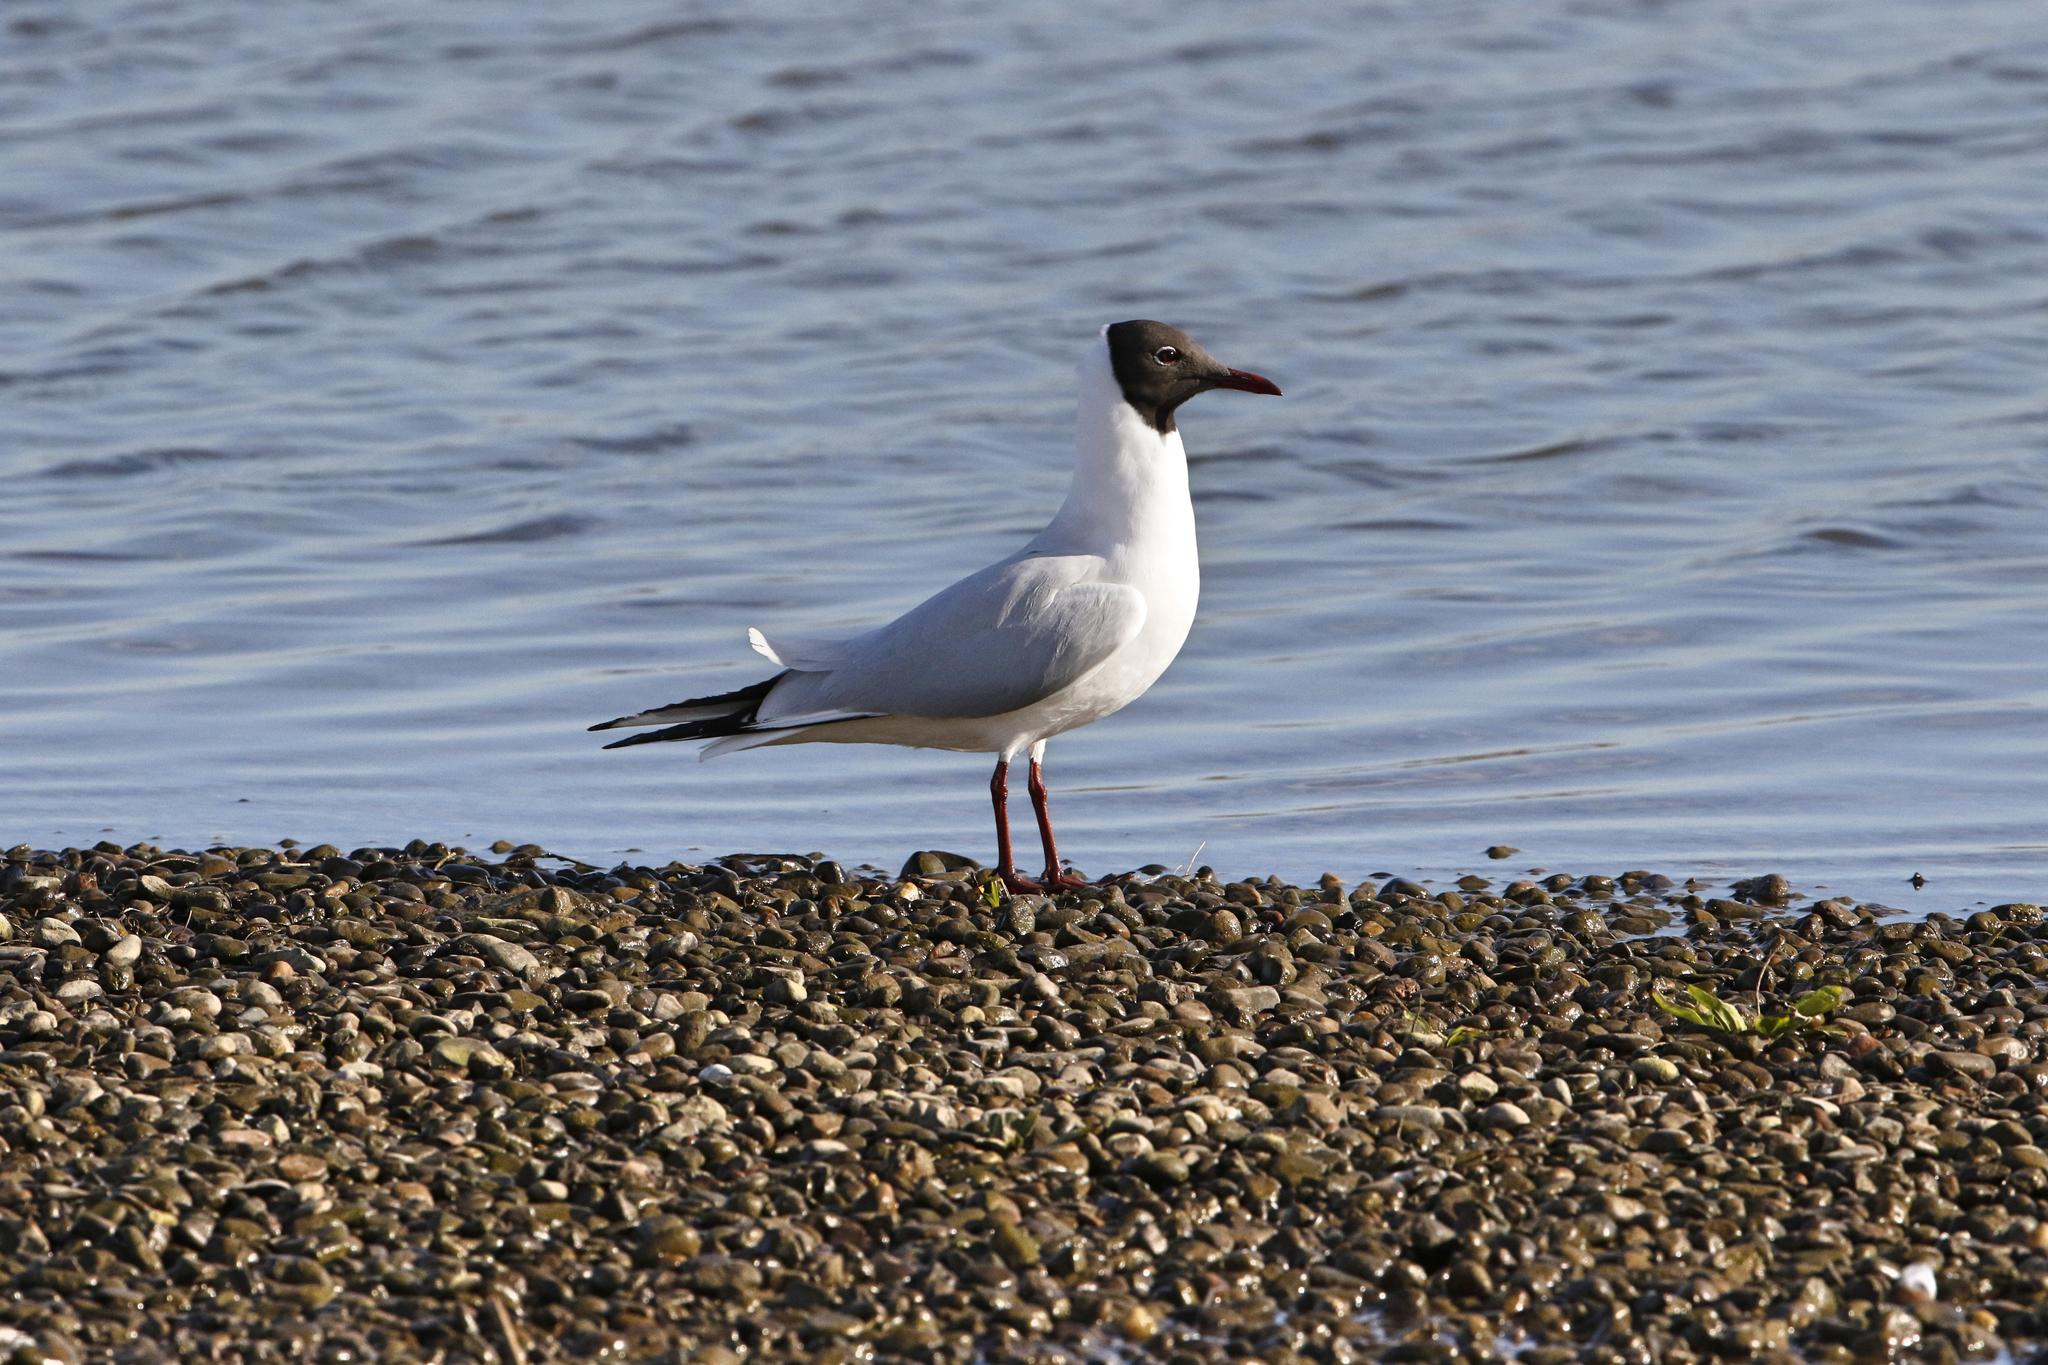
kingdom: Animalia
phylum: Chordata
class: Aves
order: Charadriiformes
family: Laridae
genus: Chroicocephalus
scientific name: Chroicocephalus ridibundus
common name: Black-headed gull
